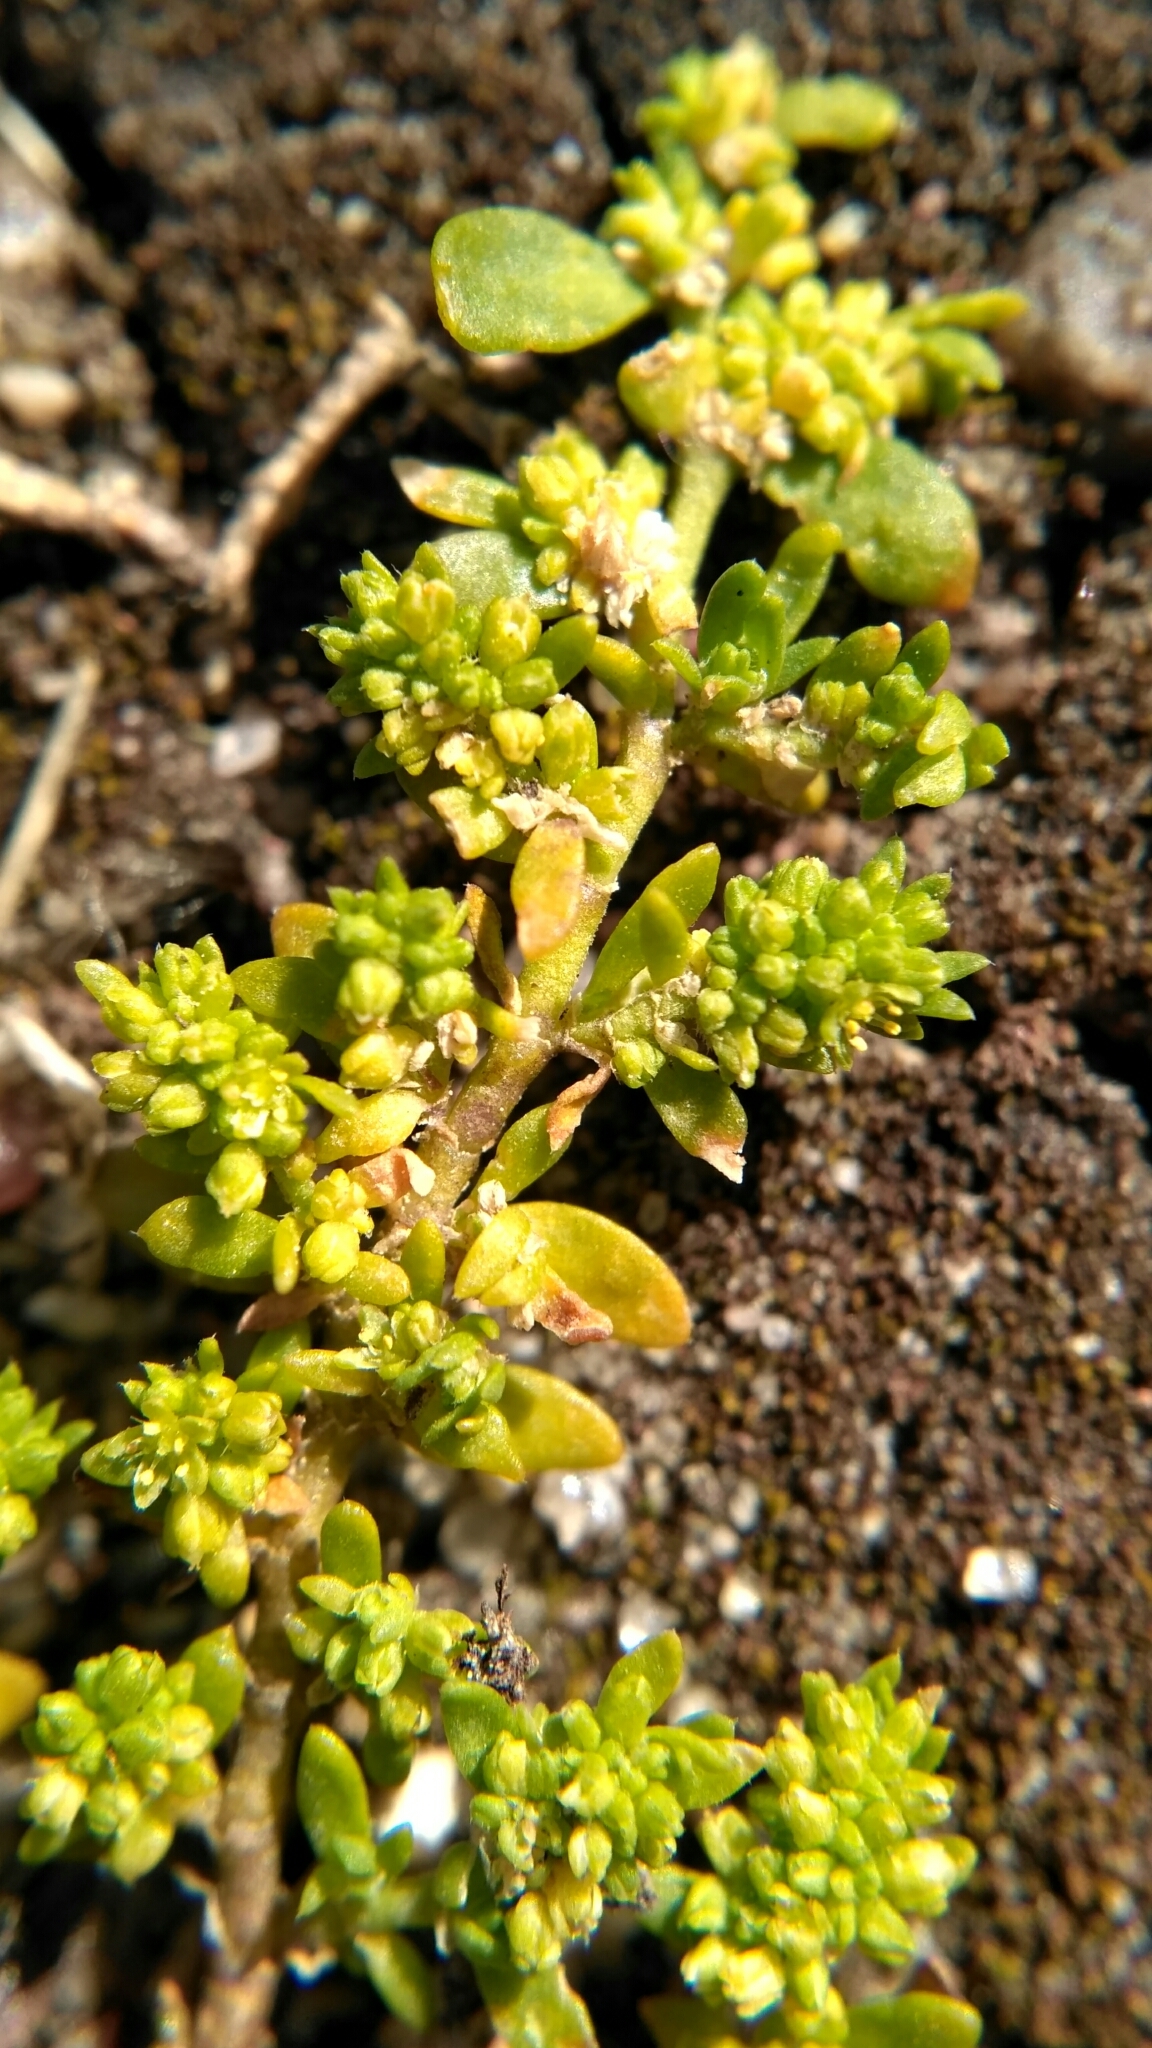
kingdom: Plantae
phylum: Tracheophyta
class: Magnoliopsida
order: Caryophyllales
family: Caryophyllaceae
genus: Herniaria
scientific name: Herniaria glabra
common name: Smooth rupturewort
